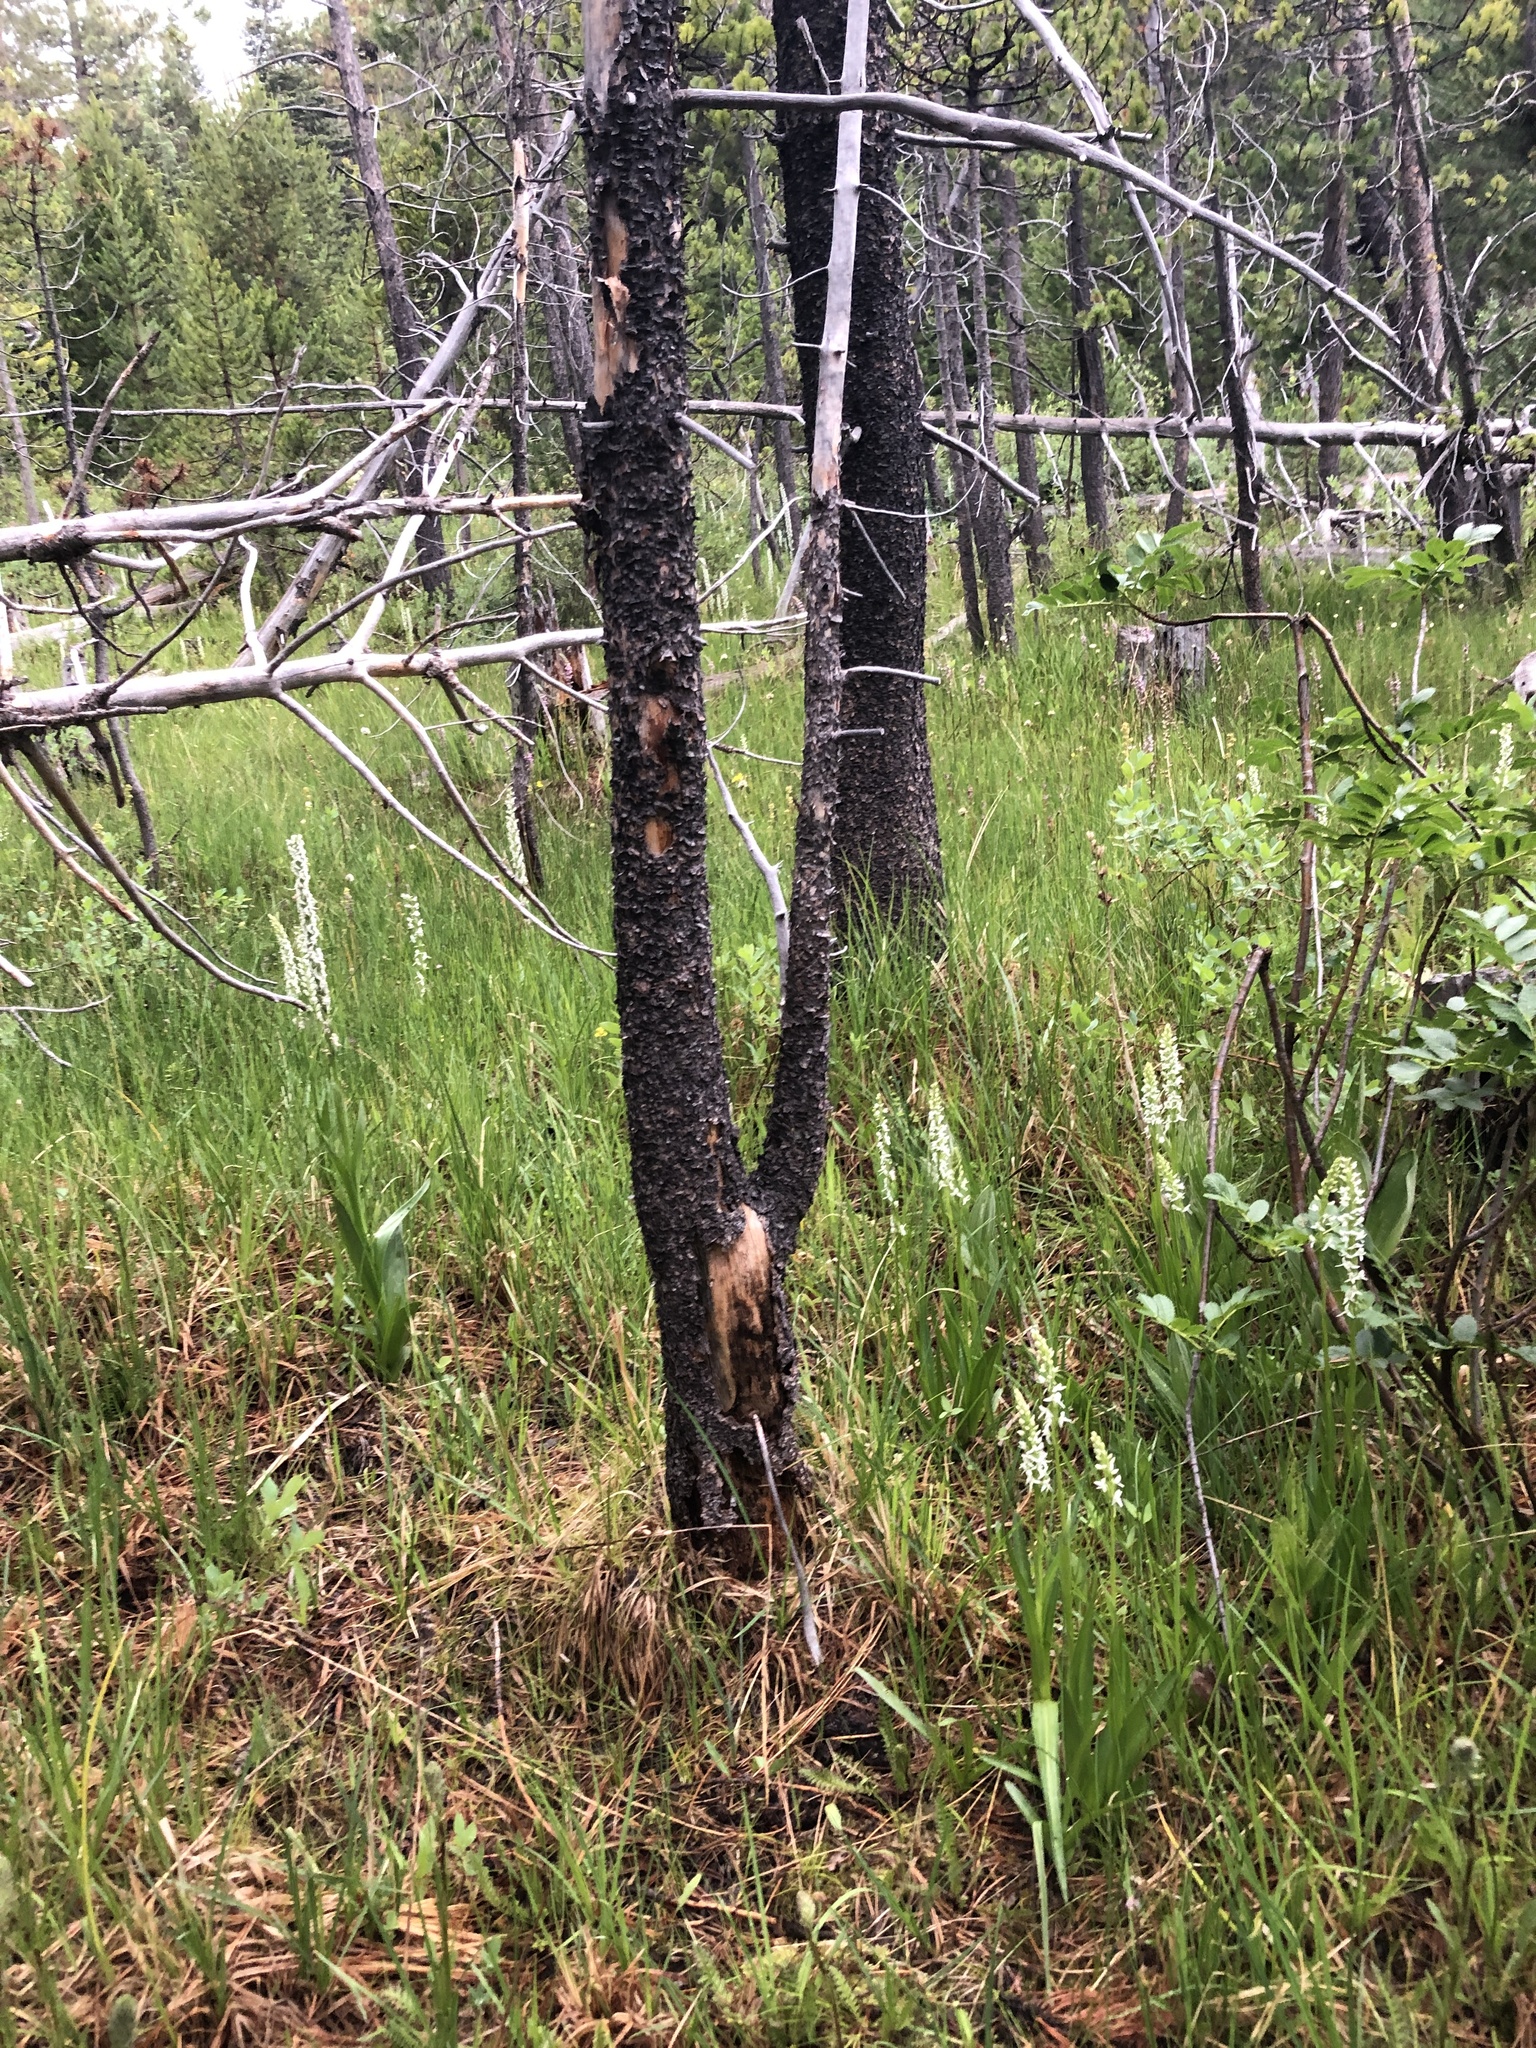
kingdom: Plantae
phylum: Tracheophyta
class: Liliopsida
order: Asparagales
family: Orchidaceae
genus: Platanthera
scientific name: Platanthera dilatata
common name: Bog candles
